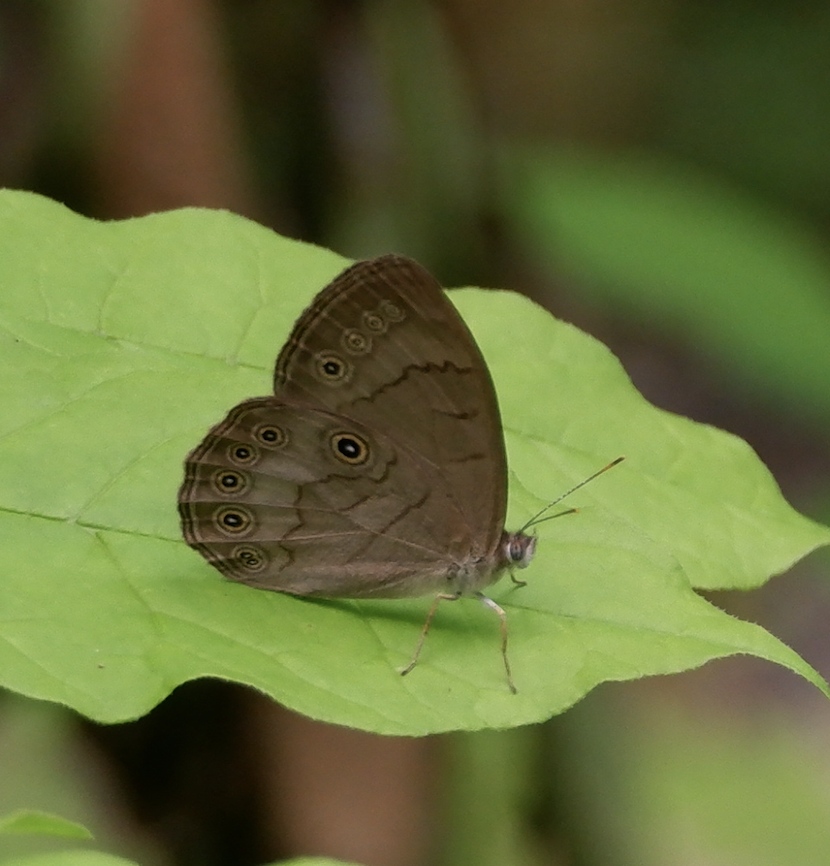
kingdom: Animalia
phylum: Arthropoda
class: Insecta
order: Lepidoptera
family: Nymphalidae
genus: Lethe
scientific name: Lethe eurydice
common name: Eyed brown
